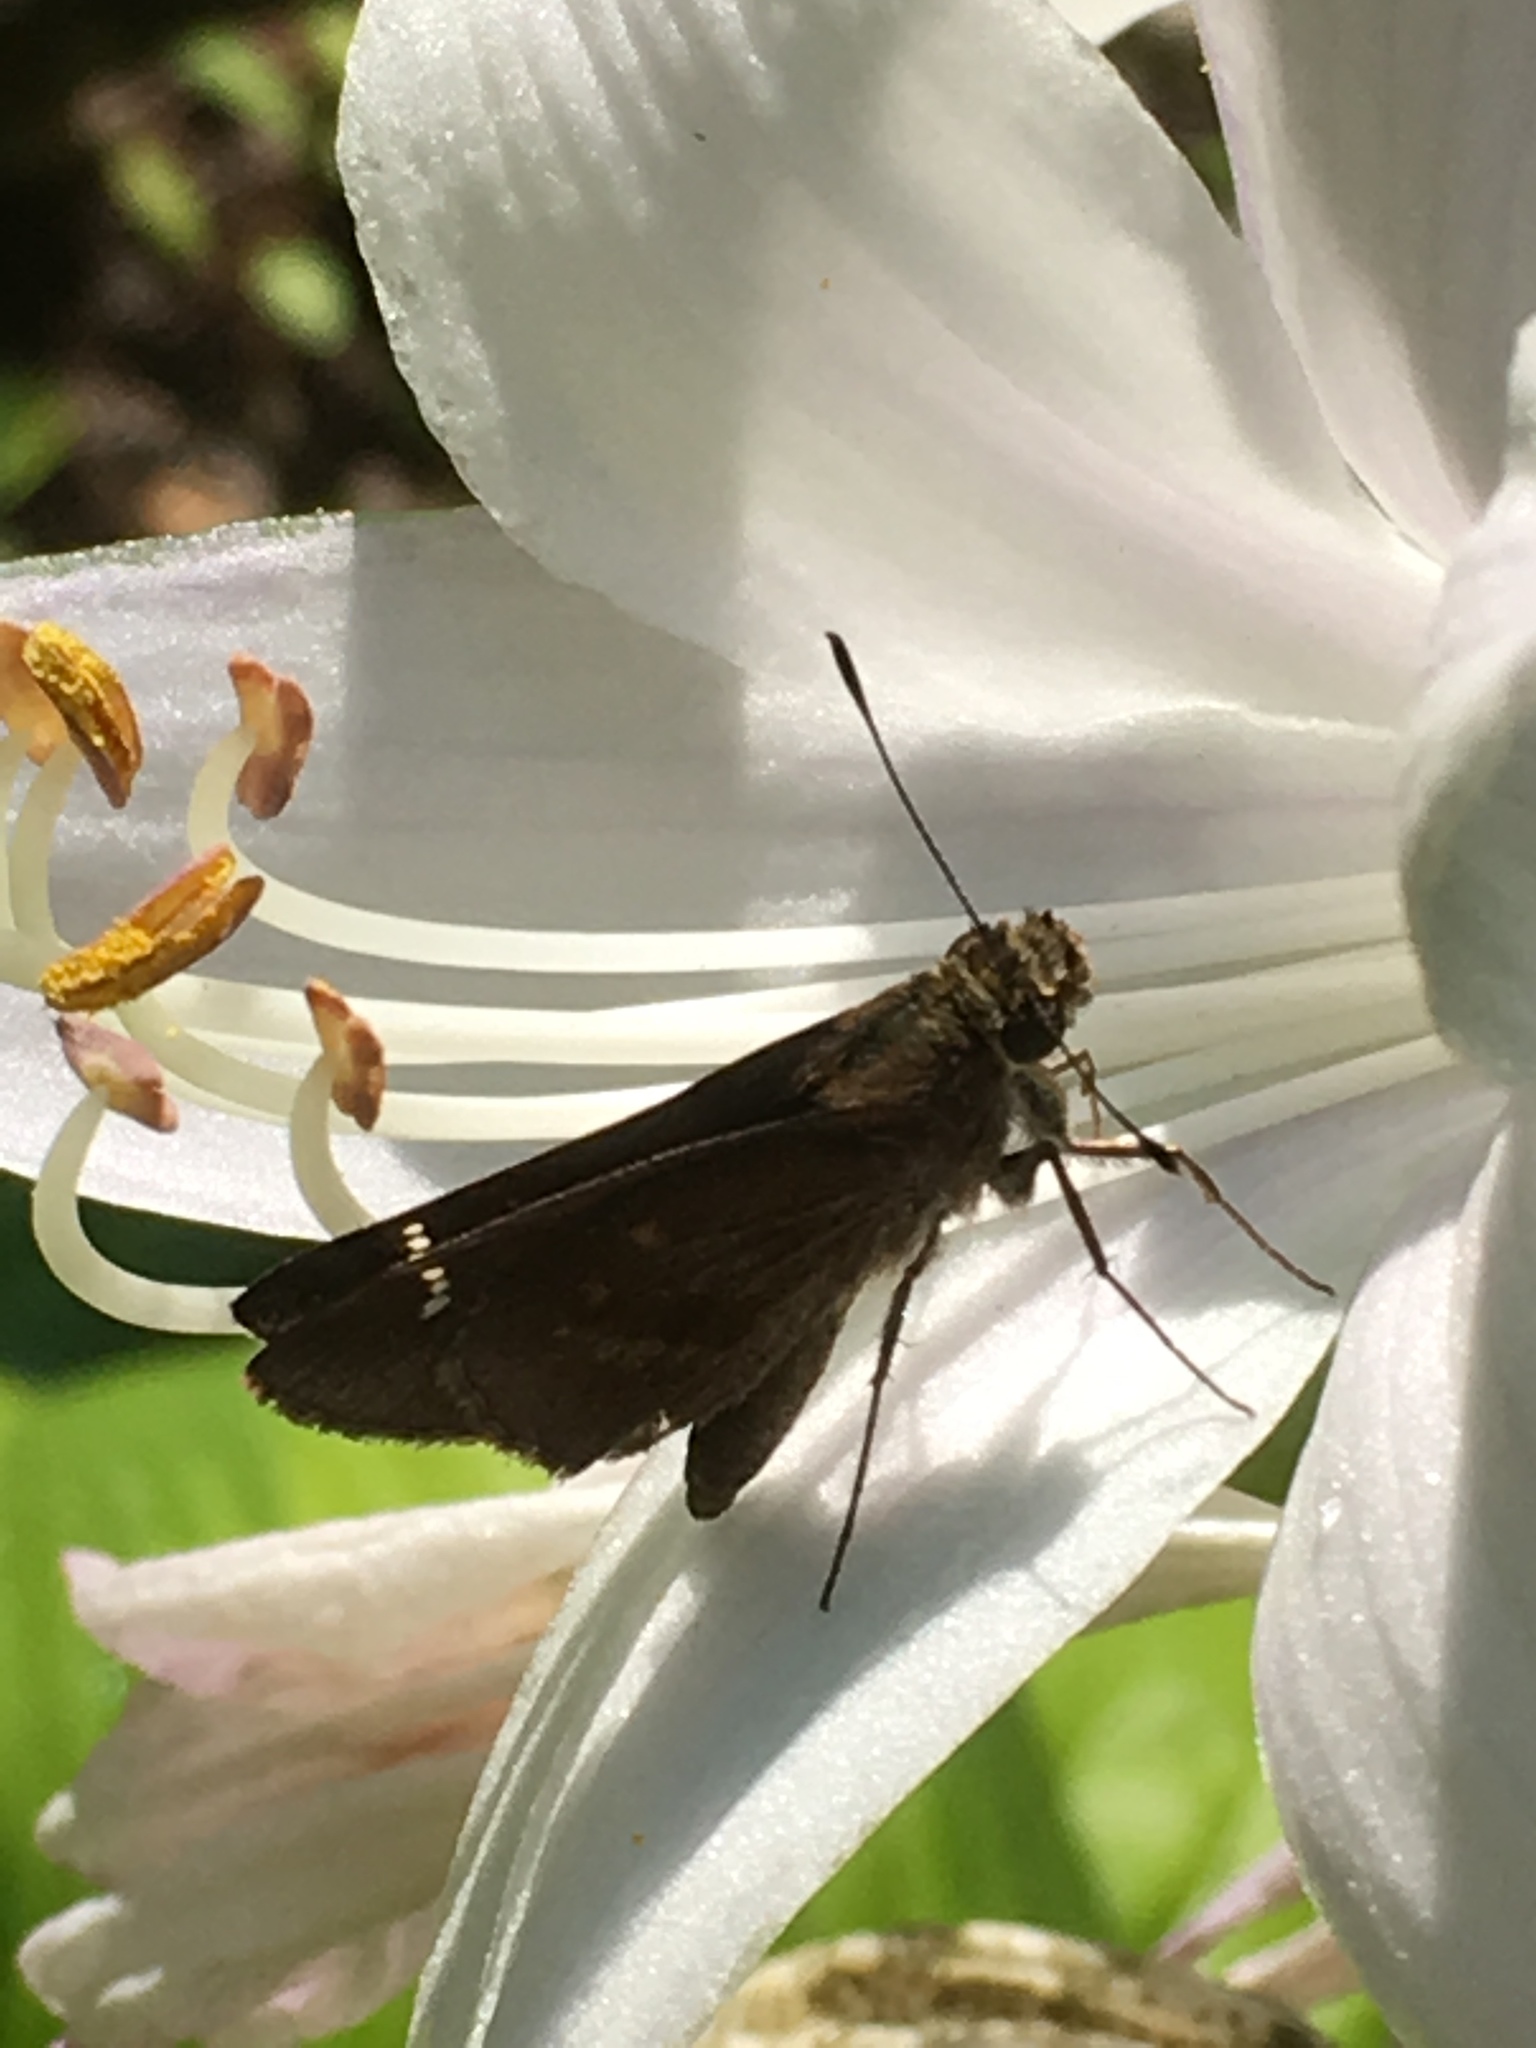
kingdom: Animalia
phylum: Arthropoda
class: Insecta
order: Lepidoptera
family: Hesperiidae
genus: Lerema
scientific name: Lerema accius
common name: Clouded skipper
